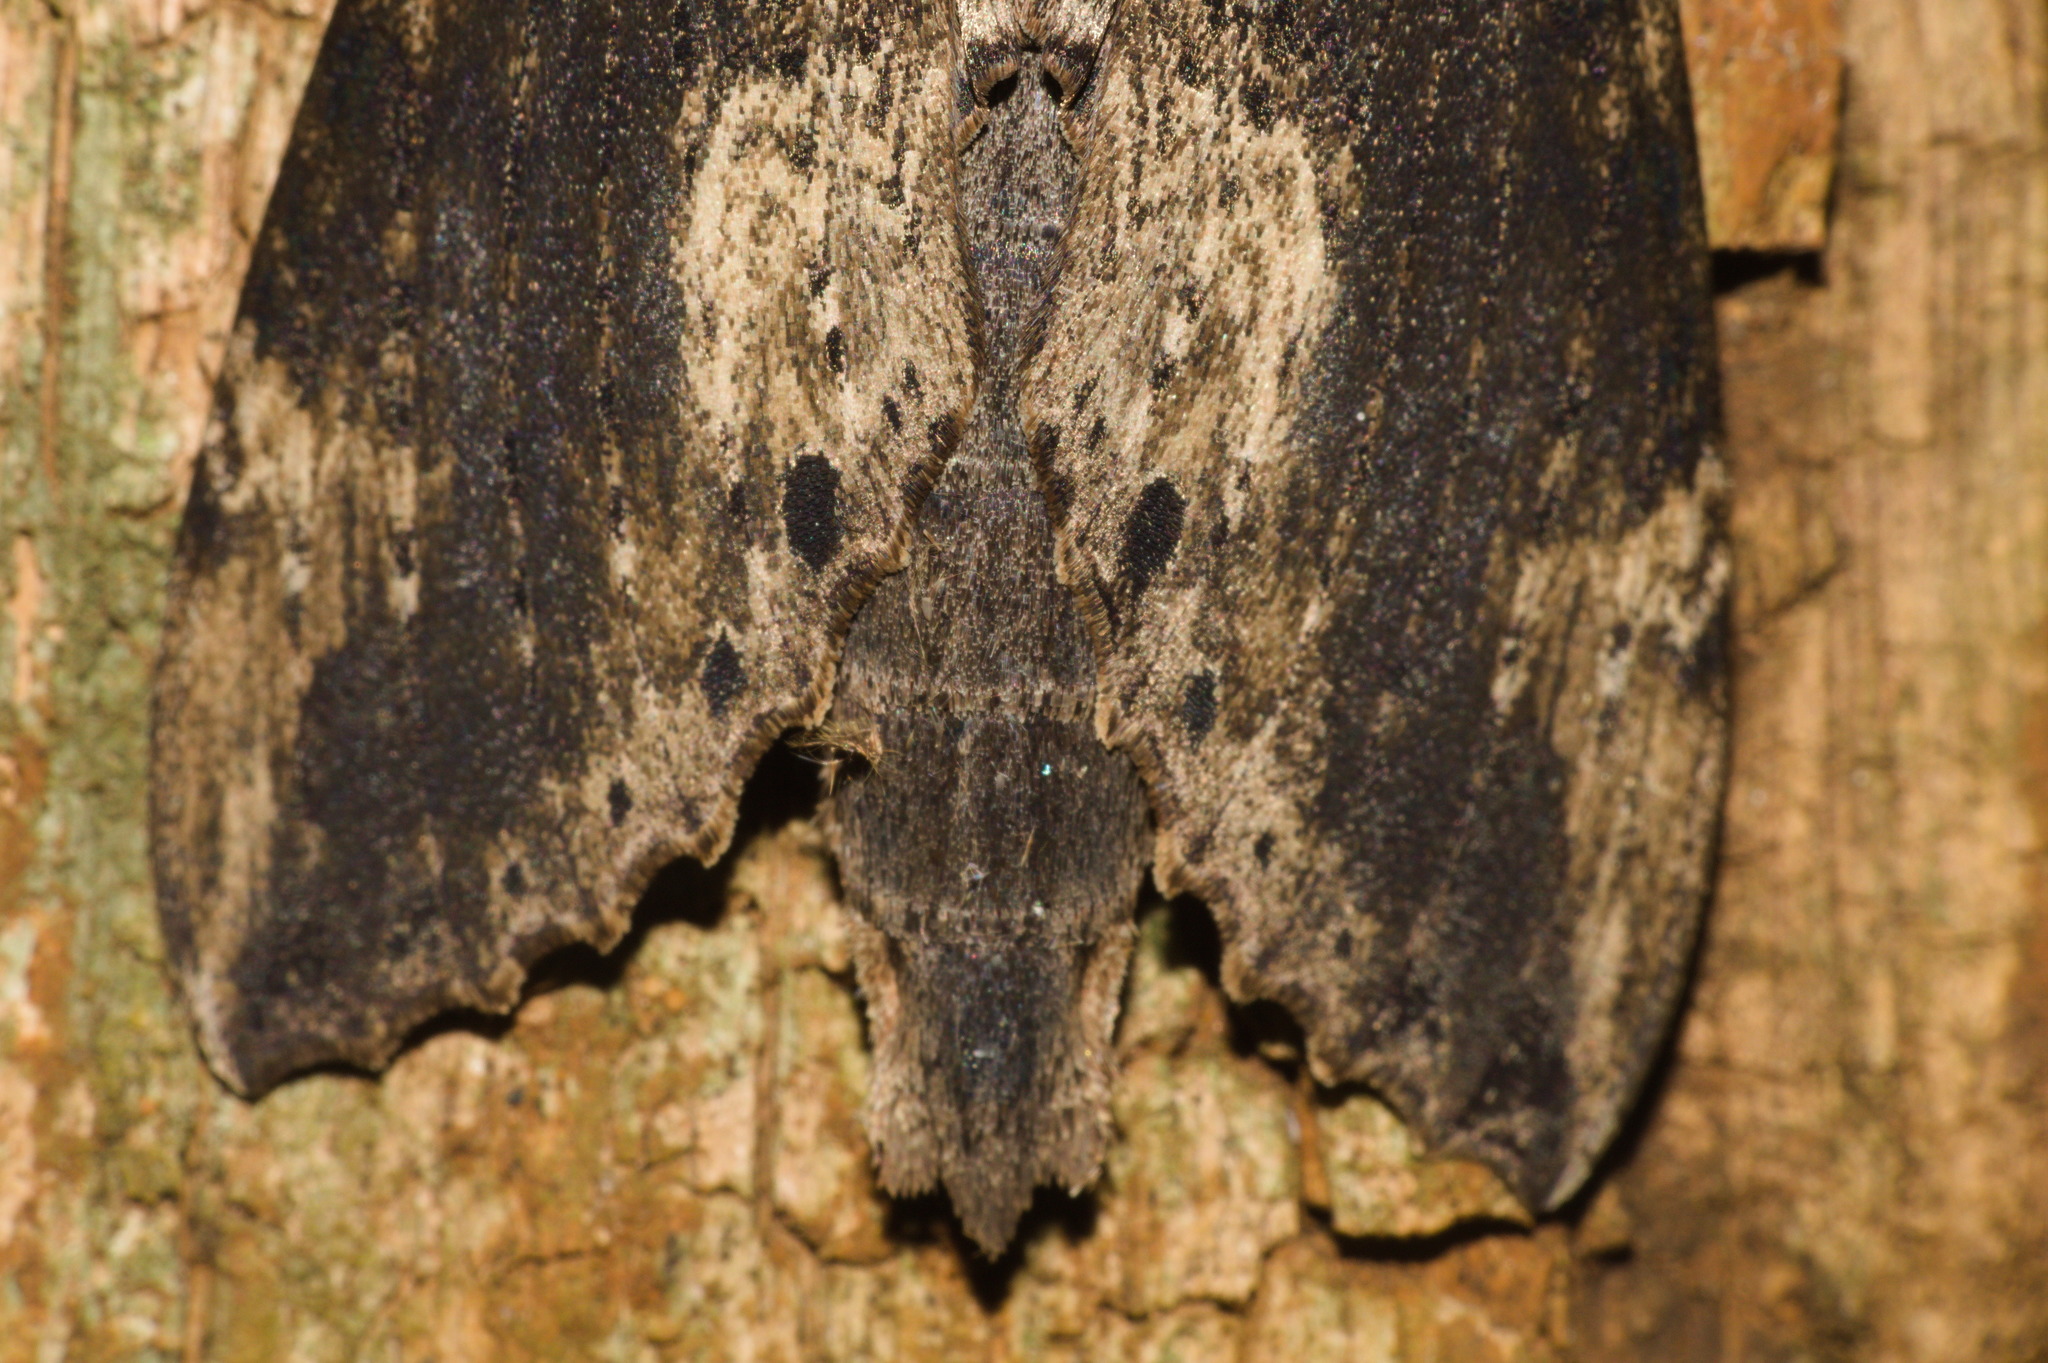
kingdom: Animalia
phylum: Arthropoda
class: Insecta
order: Lepidoptera
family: Sphingidae
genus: Erinnyis
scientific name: Erinnyis crameri
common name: Cramer's sphinx
